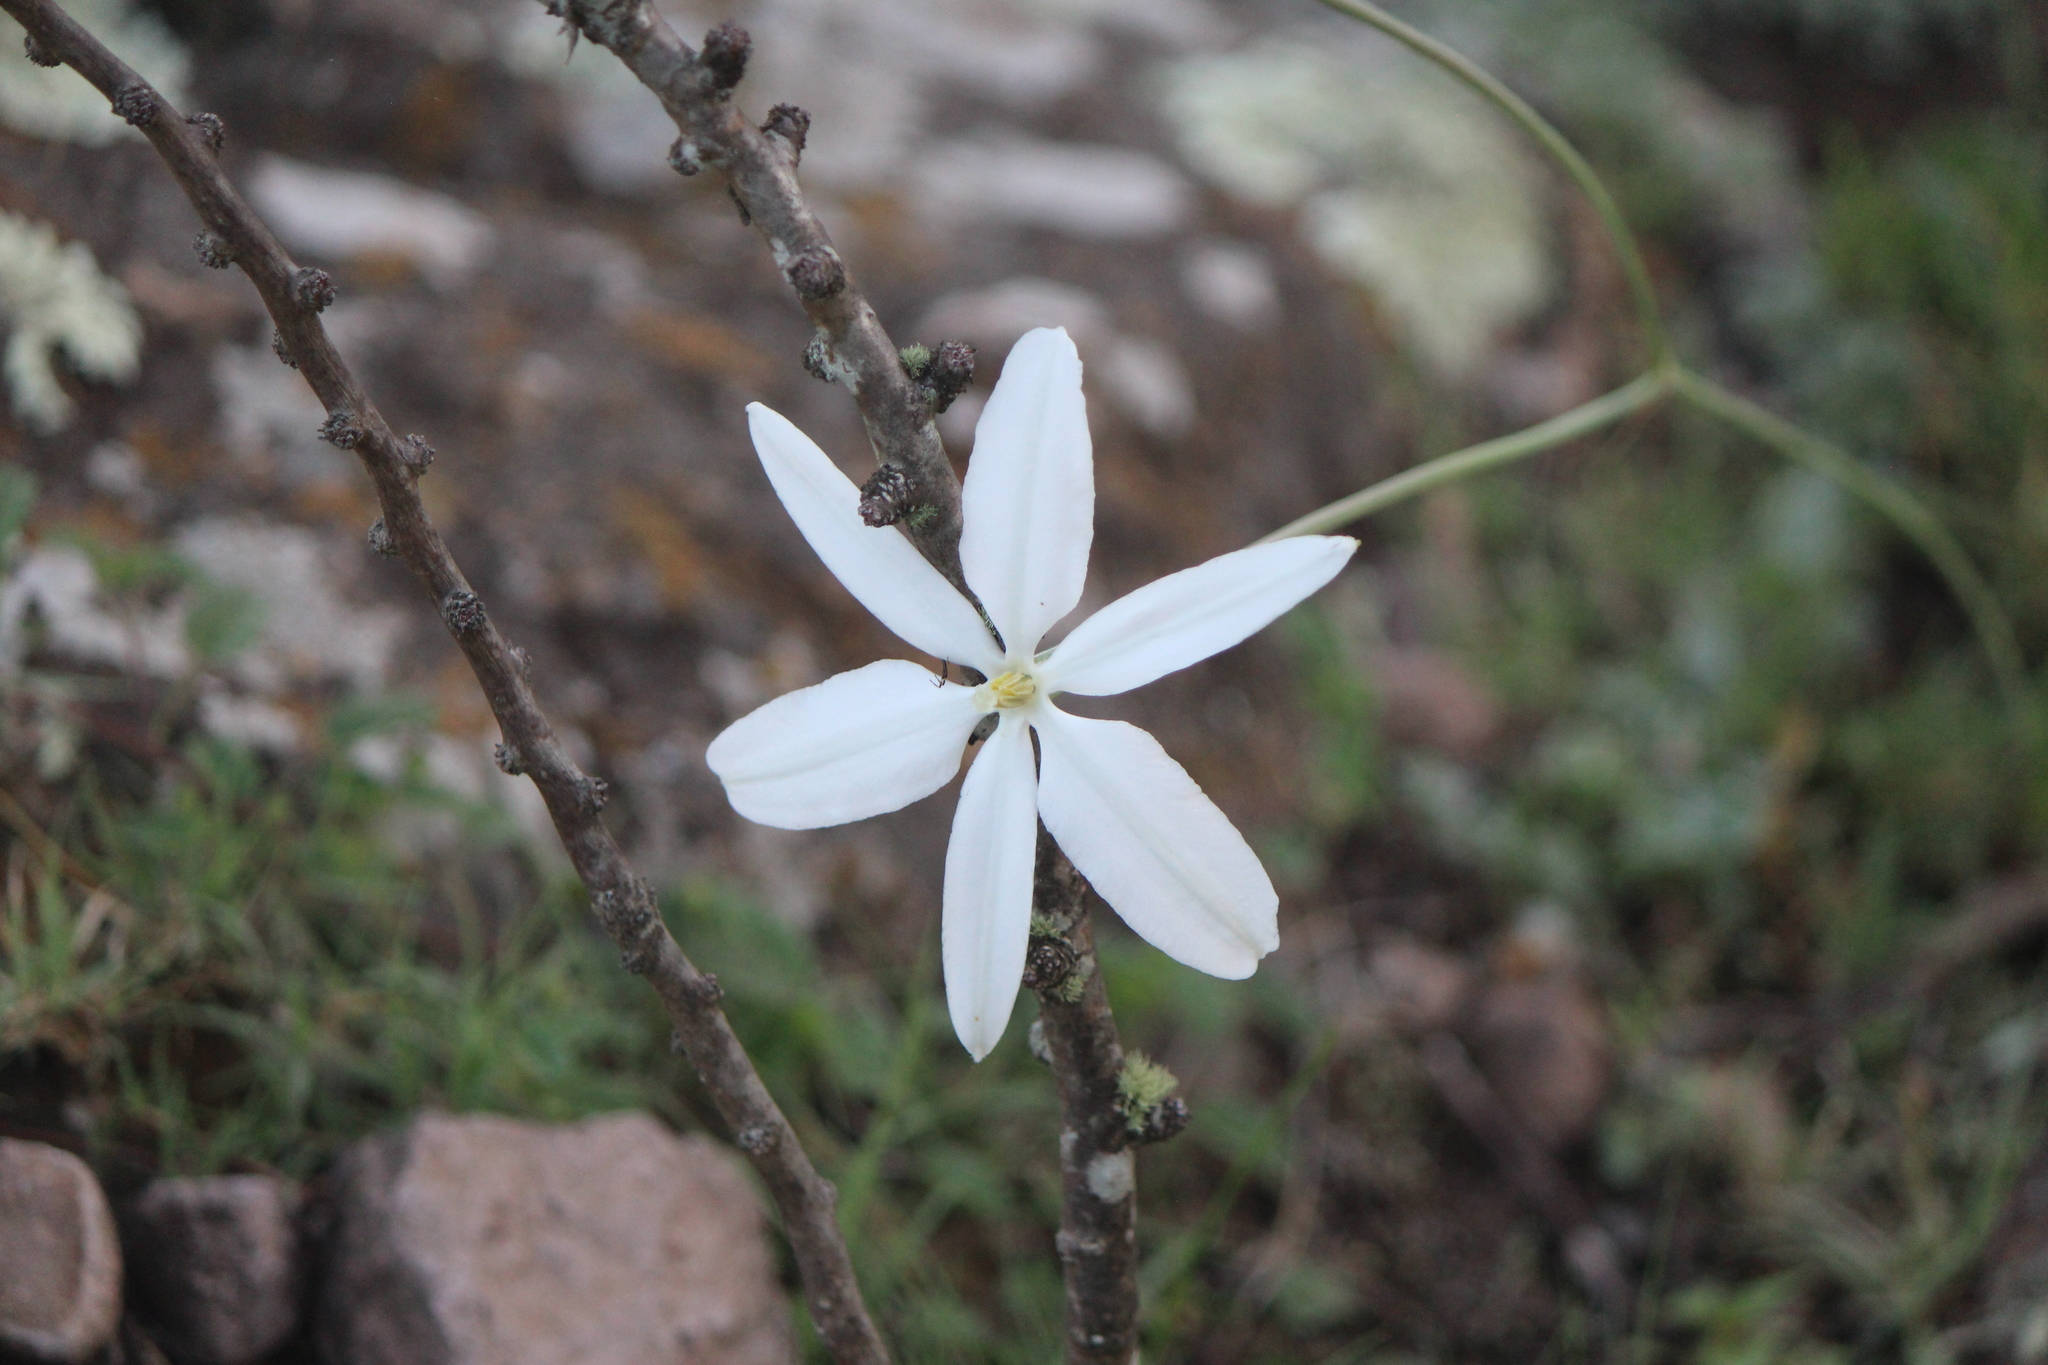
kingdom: Plantae
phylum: Tracheophyta
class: Liliopsida
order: Asparagales
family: Asparagaceae
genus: Milla
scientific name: Milla biflora
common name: Mexican-star
